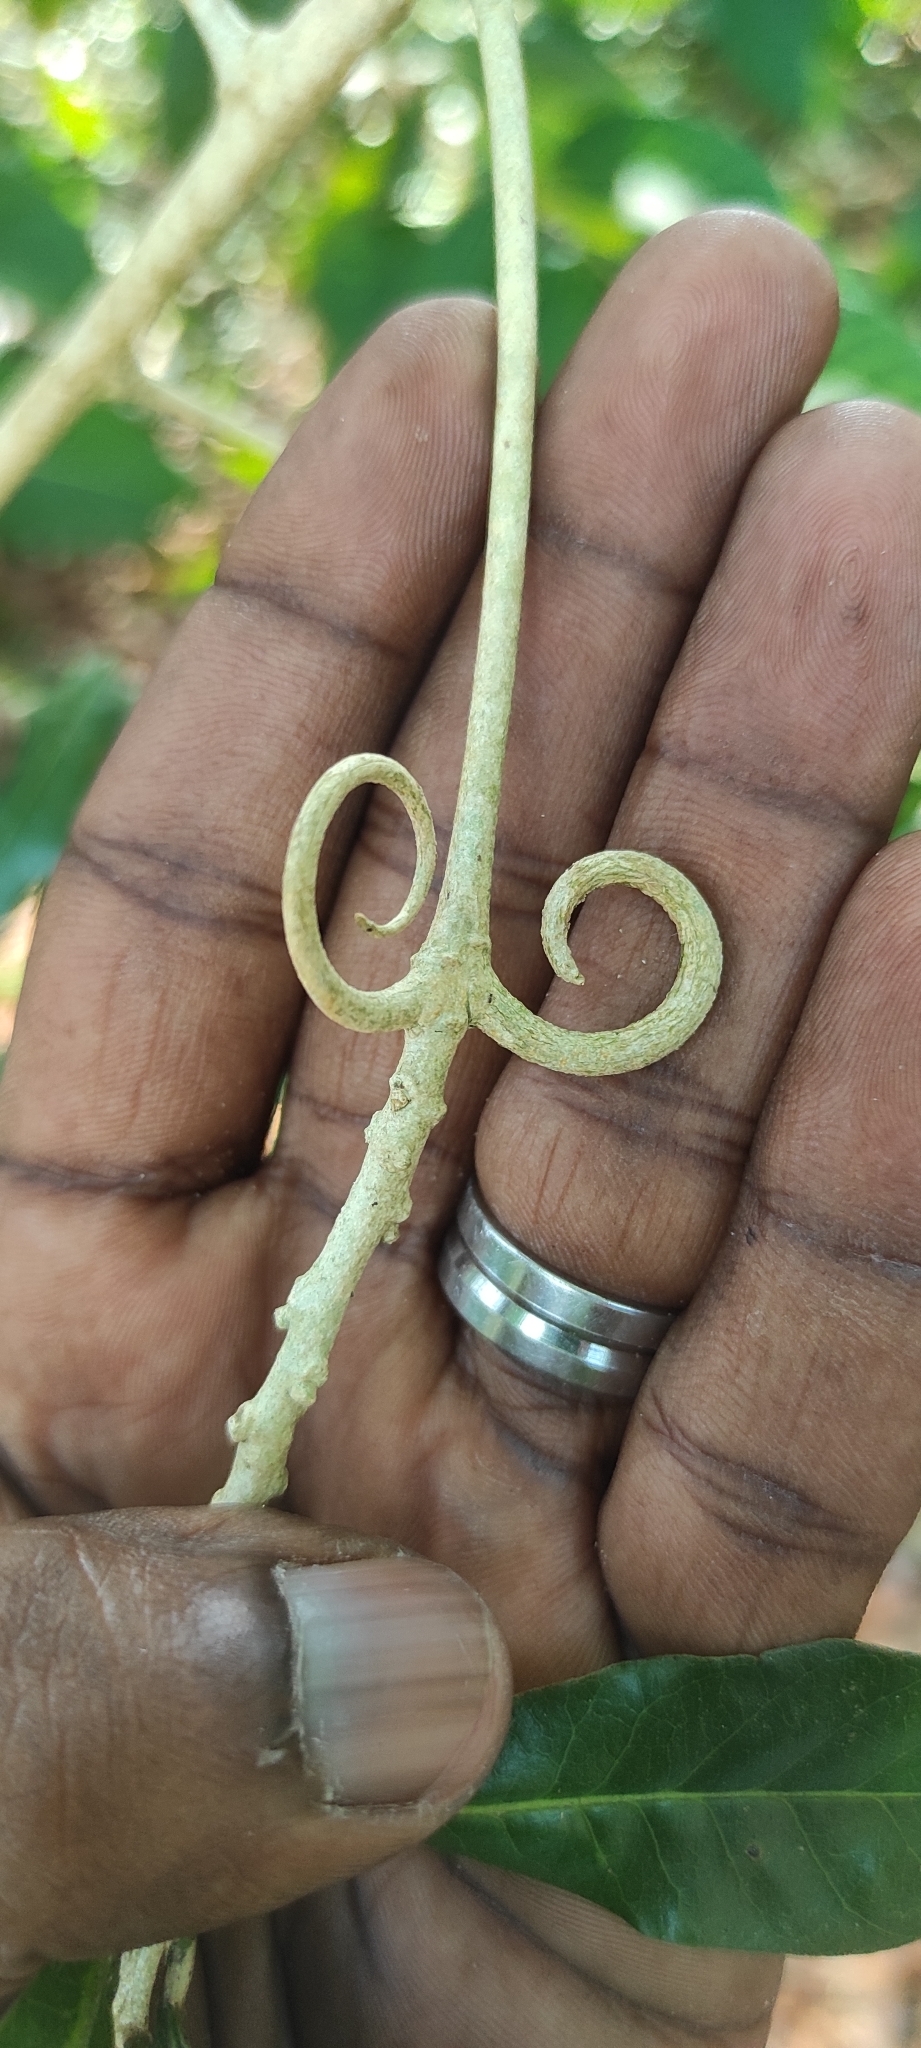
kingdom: Plantae
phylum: Tracheophyta
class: Magnoliopsida
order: Malpighiales
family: Linaceae
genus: Hugonia
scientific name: Hugonia mystax
